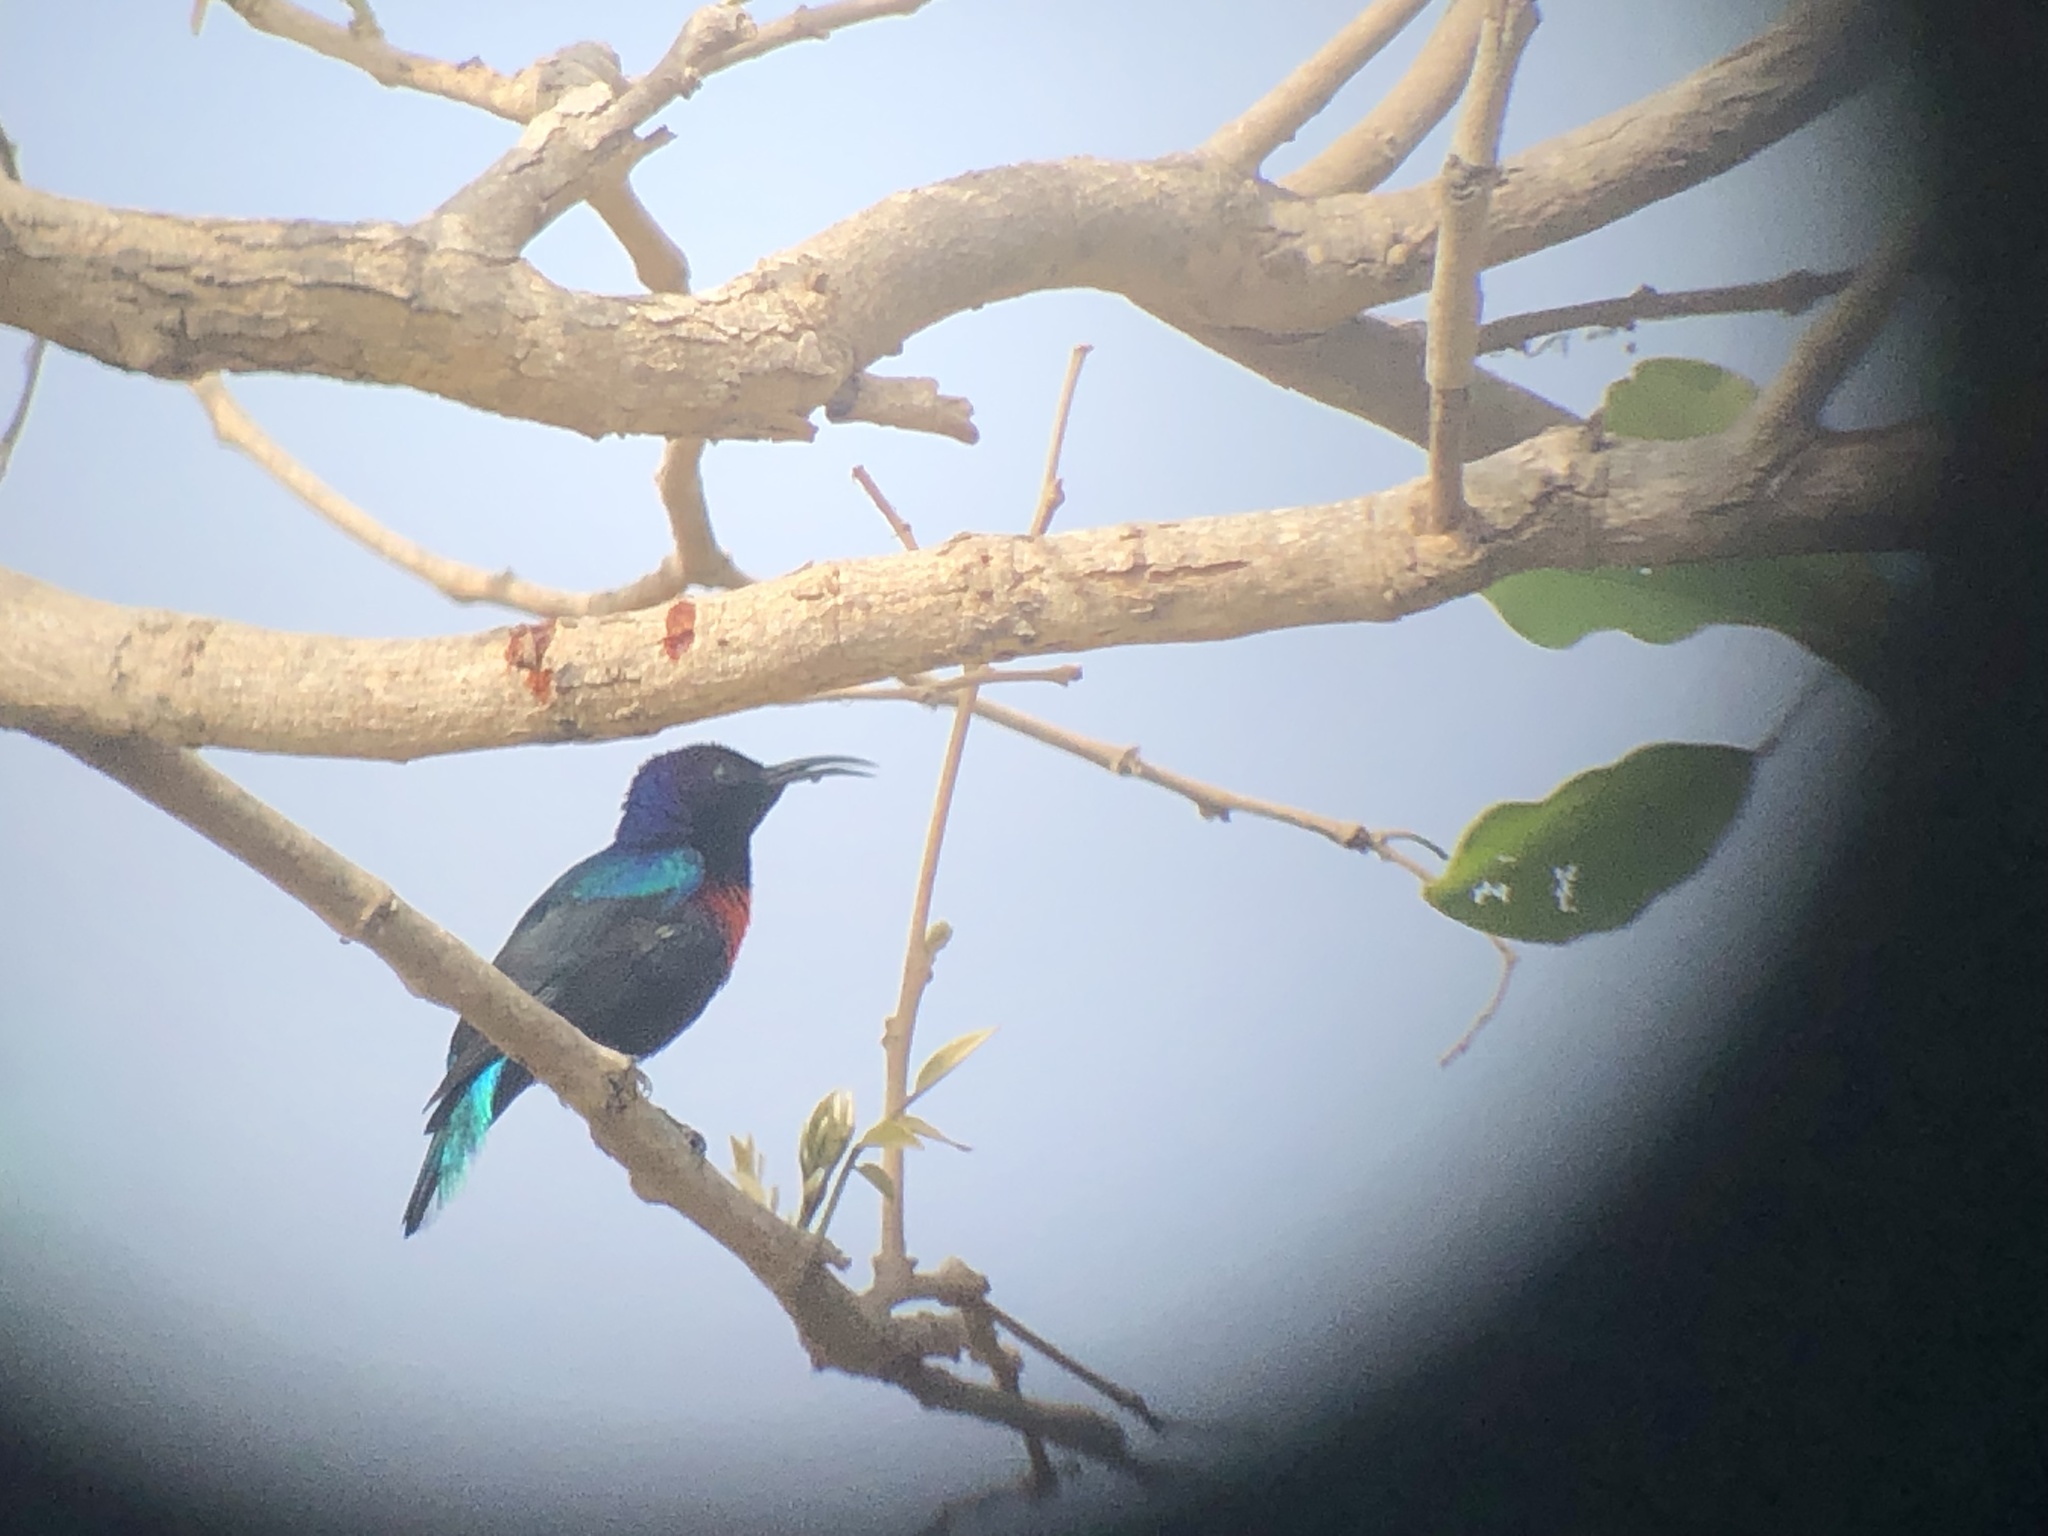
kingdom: Animalia
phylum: Chordata
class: Aves
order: Passeriformes
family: Nectariniidae
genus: Cinnyris
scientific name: Cinnyris coccinigastrus
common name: Splendid sunbird
